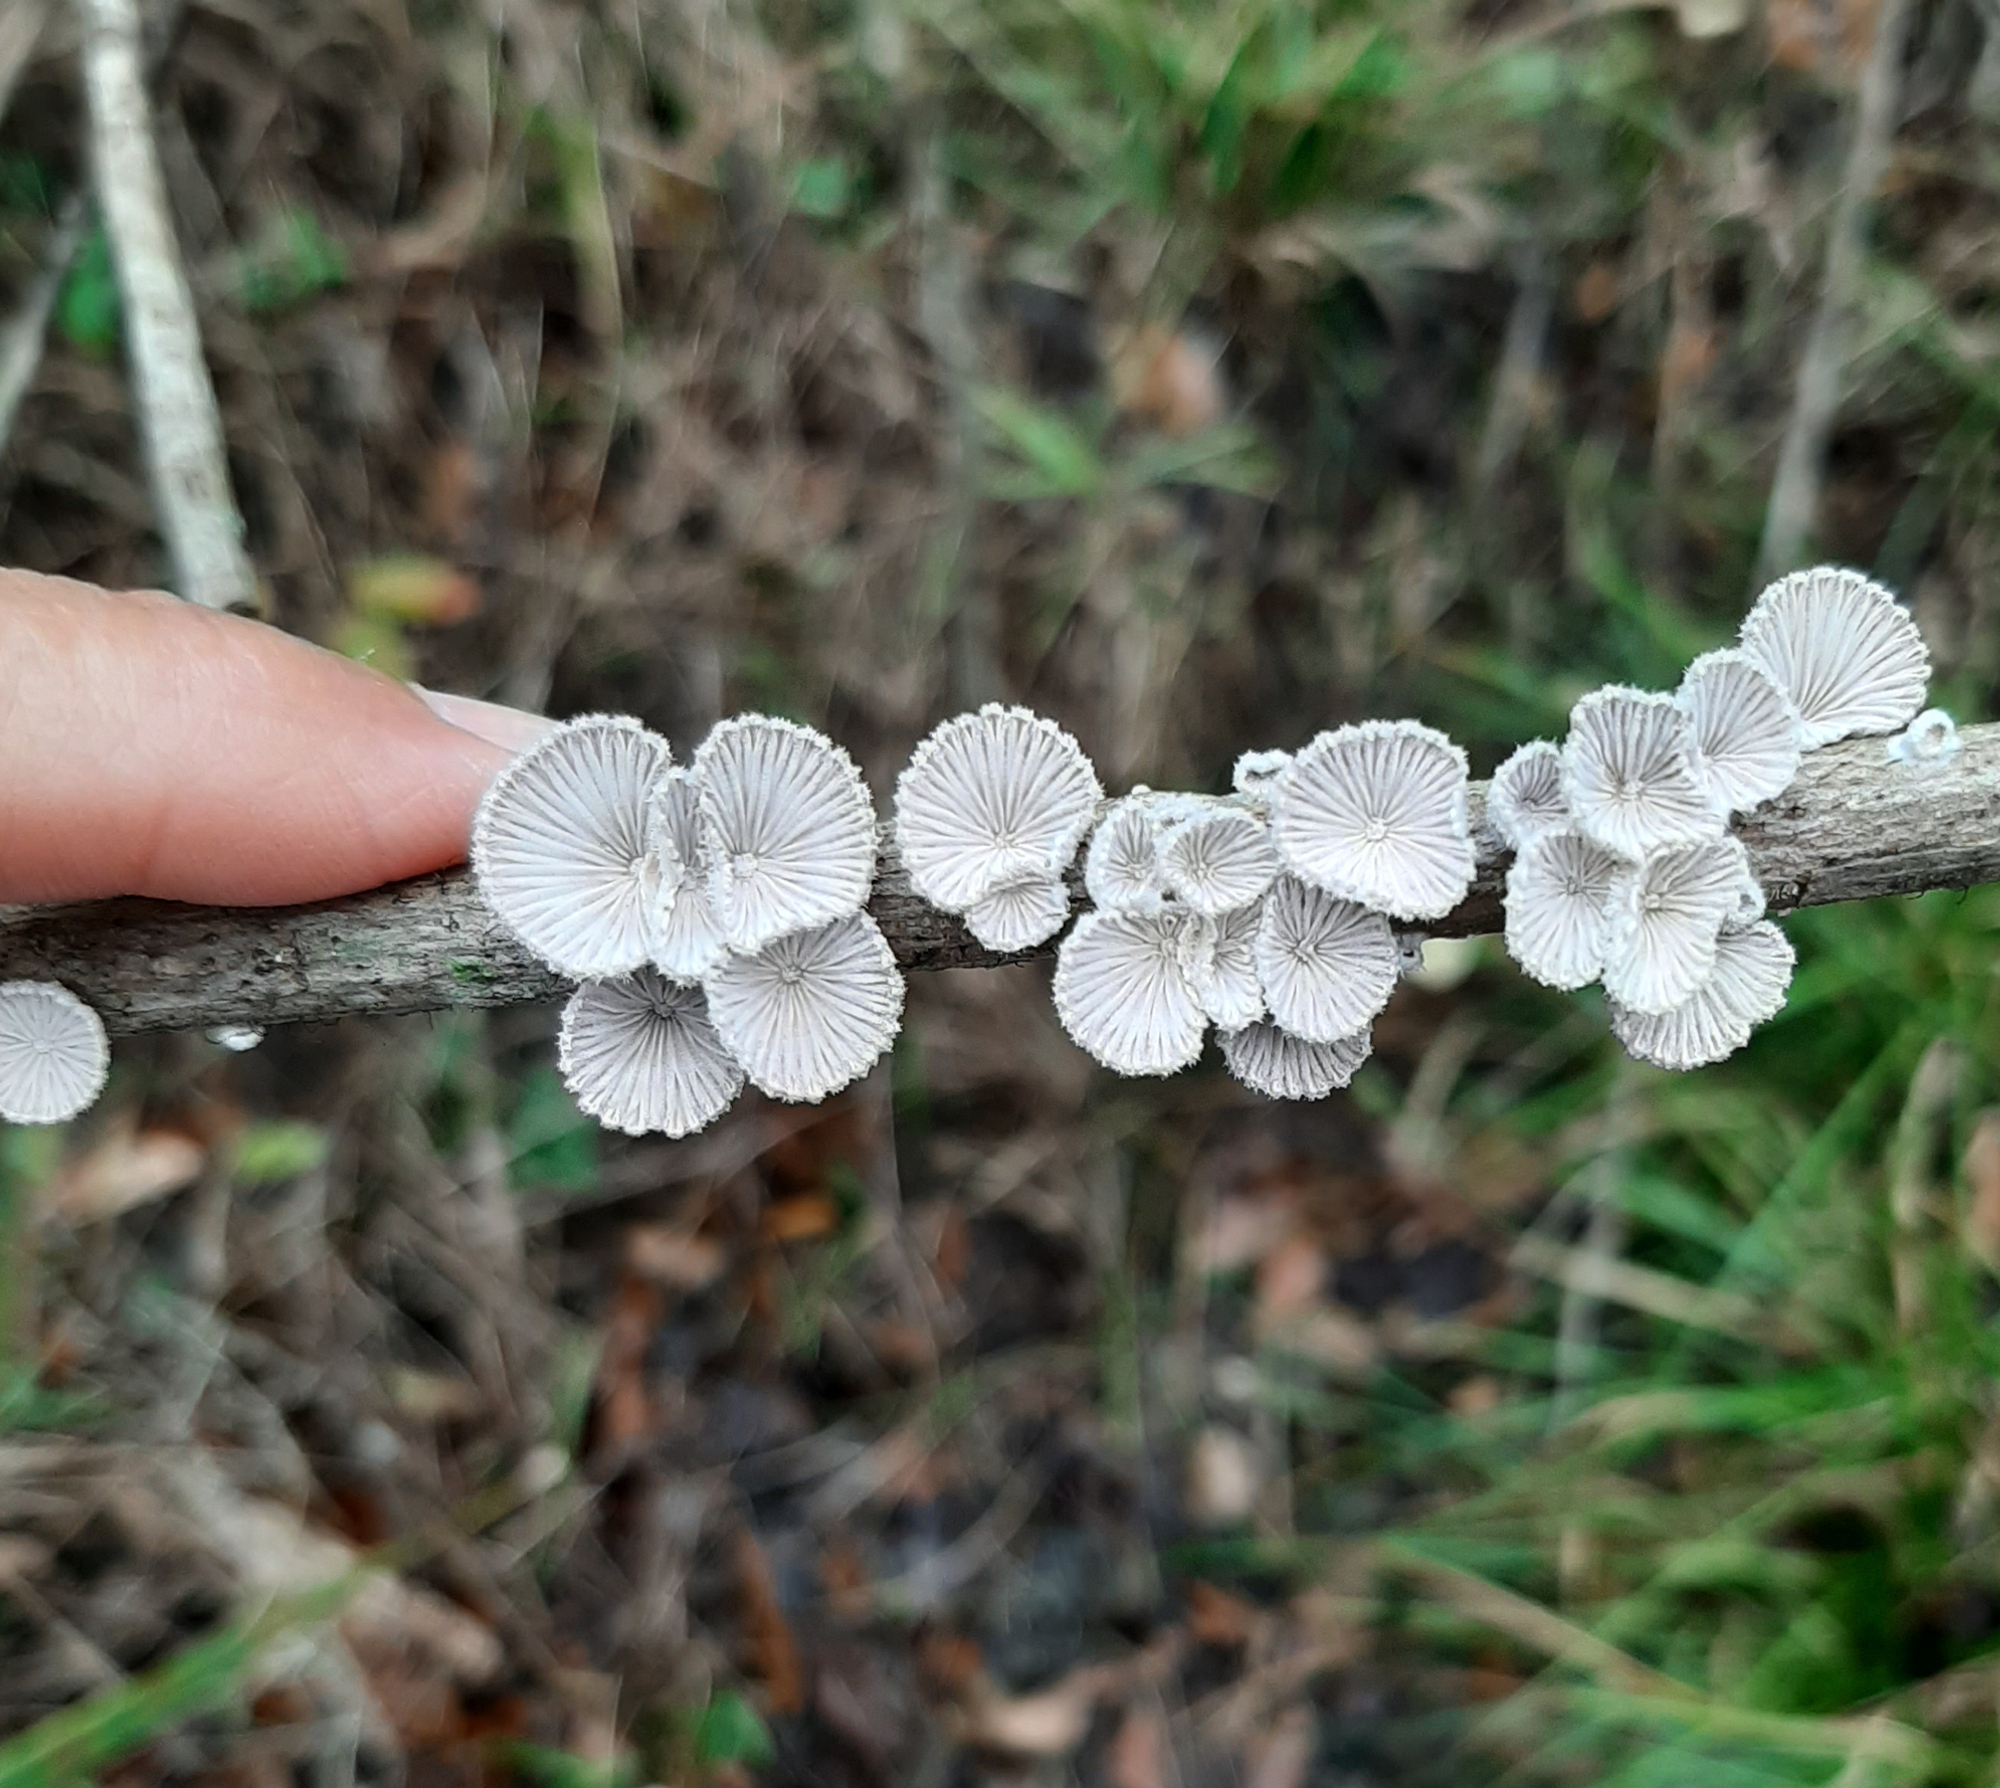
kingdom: Fungi
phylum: Basidiomycota
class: Agaricomycetes
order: Agaricales
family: Schizophyllaceae
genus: Schizophyllum
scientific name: Schizophyllum commune
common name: Common porecrust
